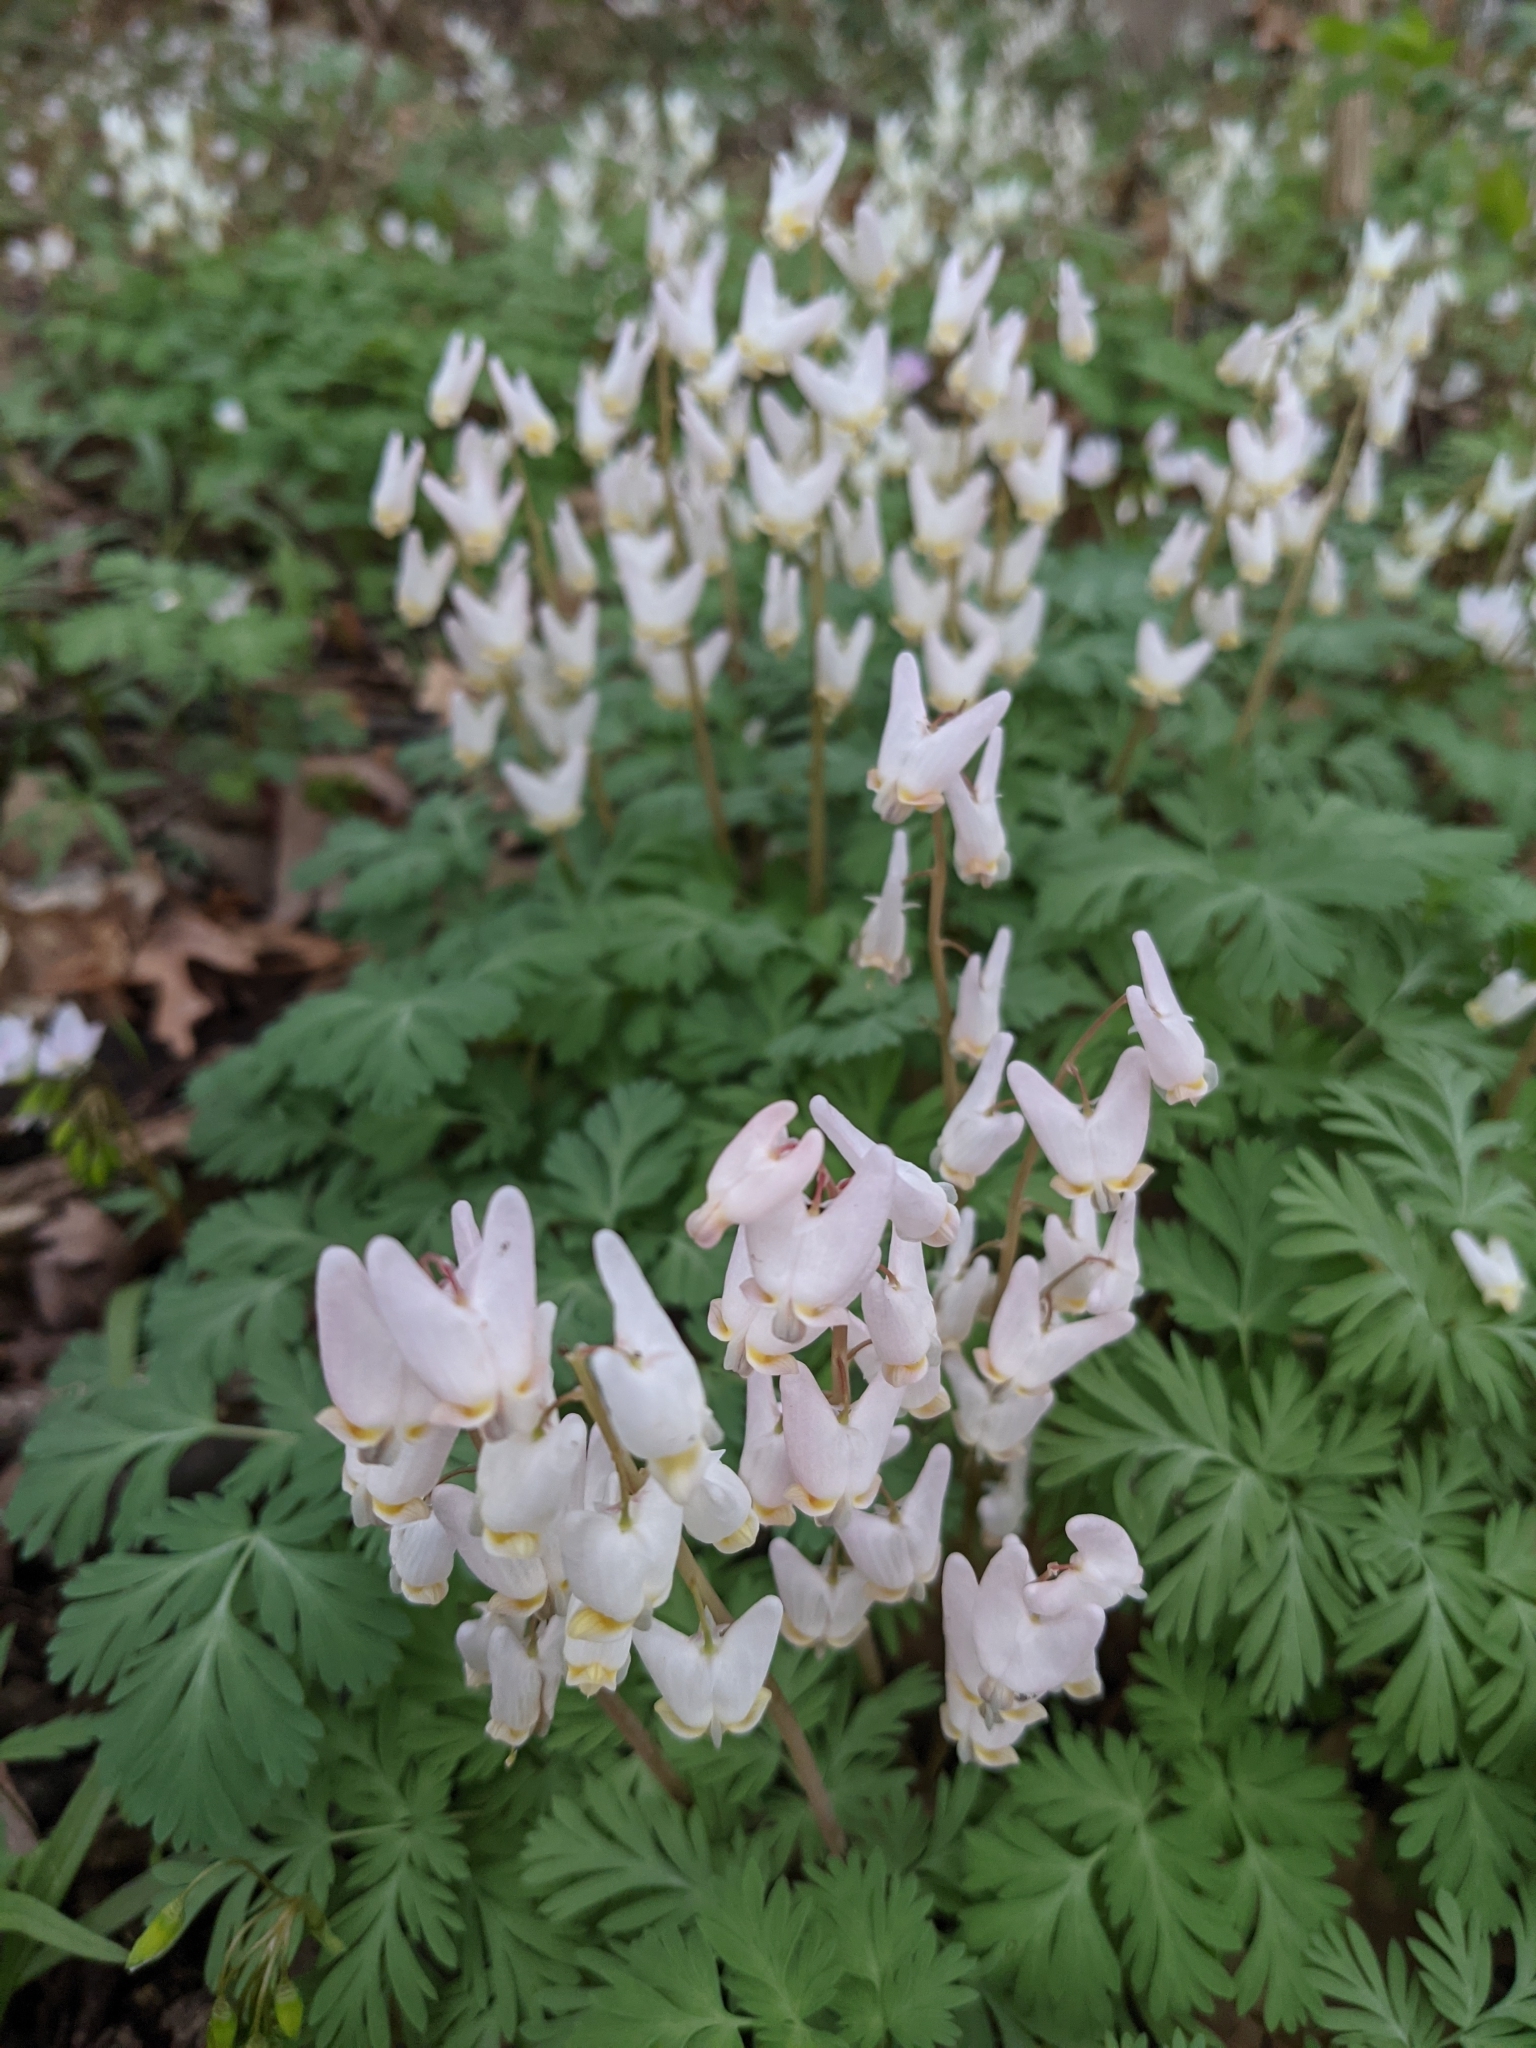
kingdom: Plantae
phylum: Tracheophyta
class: Magnoliopsida
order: Ranunculales
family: Papaveraceae
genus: Dicentra
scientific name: Dicentra cucullaria
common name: Dutchman's breeches
